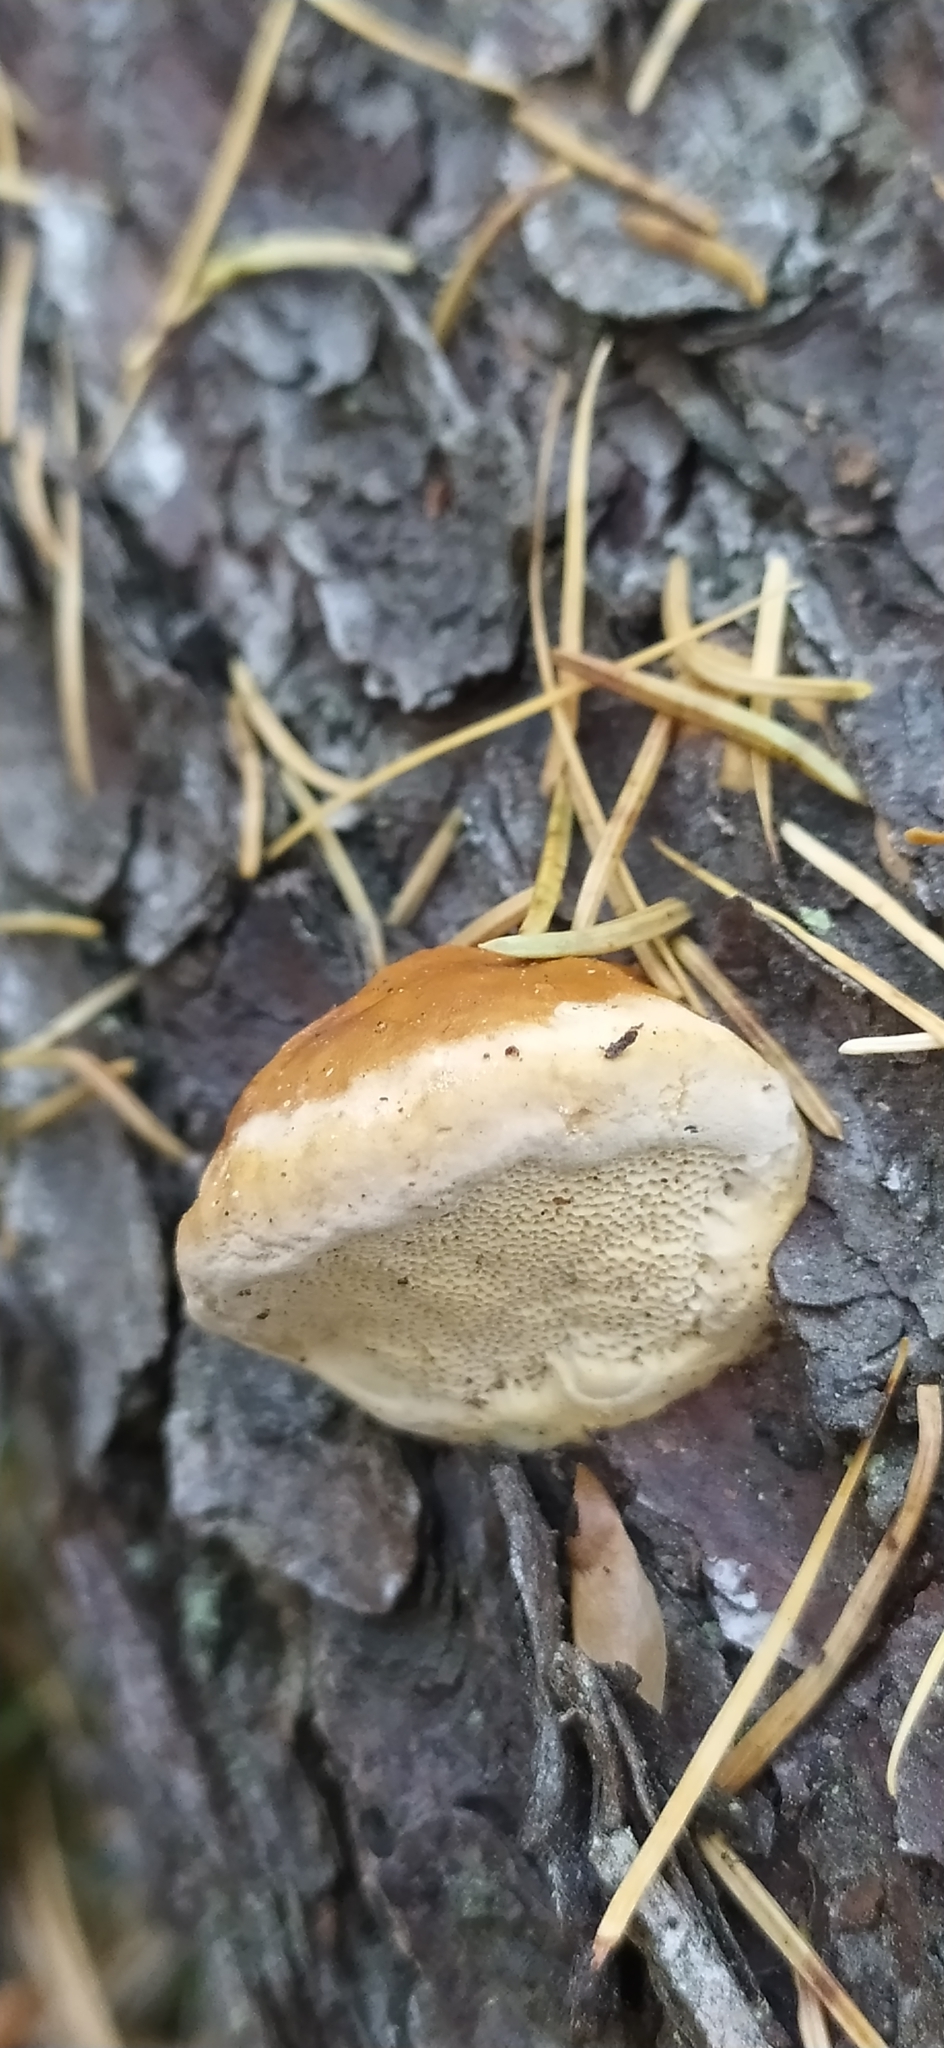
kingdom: Fungi
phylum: Basidiomycota
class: Agaricomycetes
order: Polyporales
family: Fomitopsidaceae
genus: Fomitopsis
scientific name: Fomitopsis pinicola
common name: Red-belted bracket
